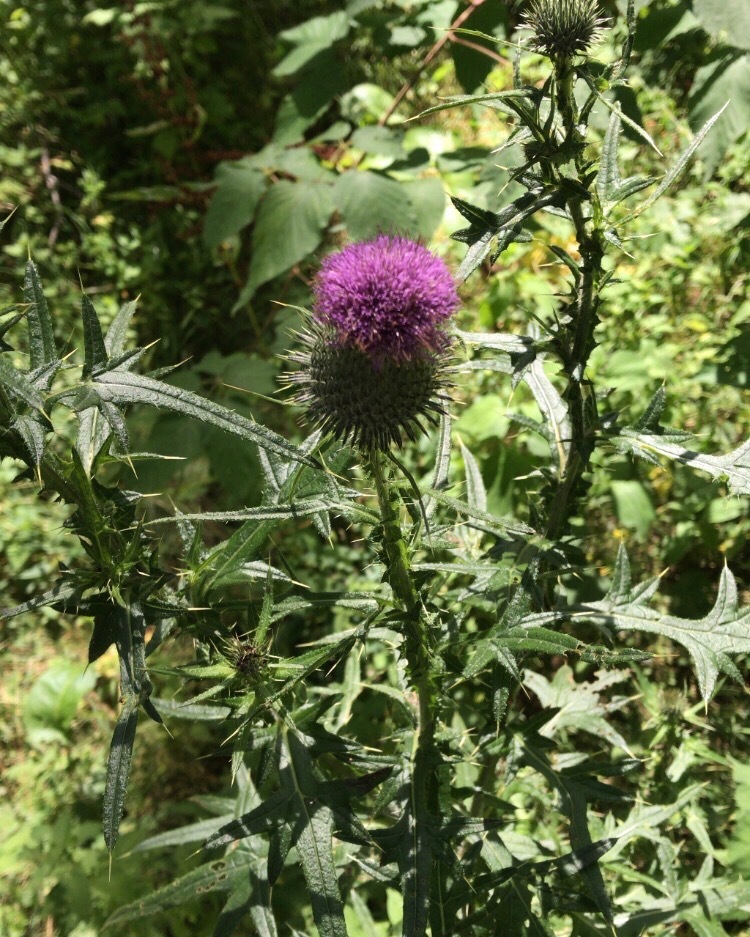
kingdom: Plantae
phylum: Tracheophyta
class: Magnoliopsida
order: Asterales
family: Asteraceae
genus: Cirsium
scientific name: Cirsium vulgare
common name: Bull thistle
